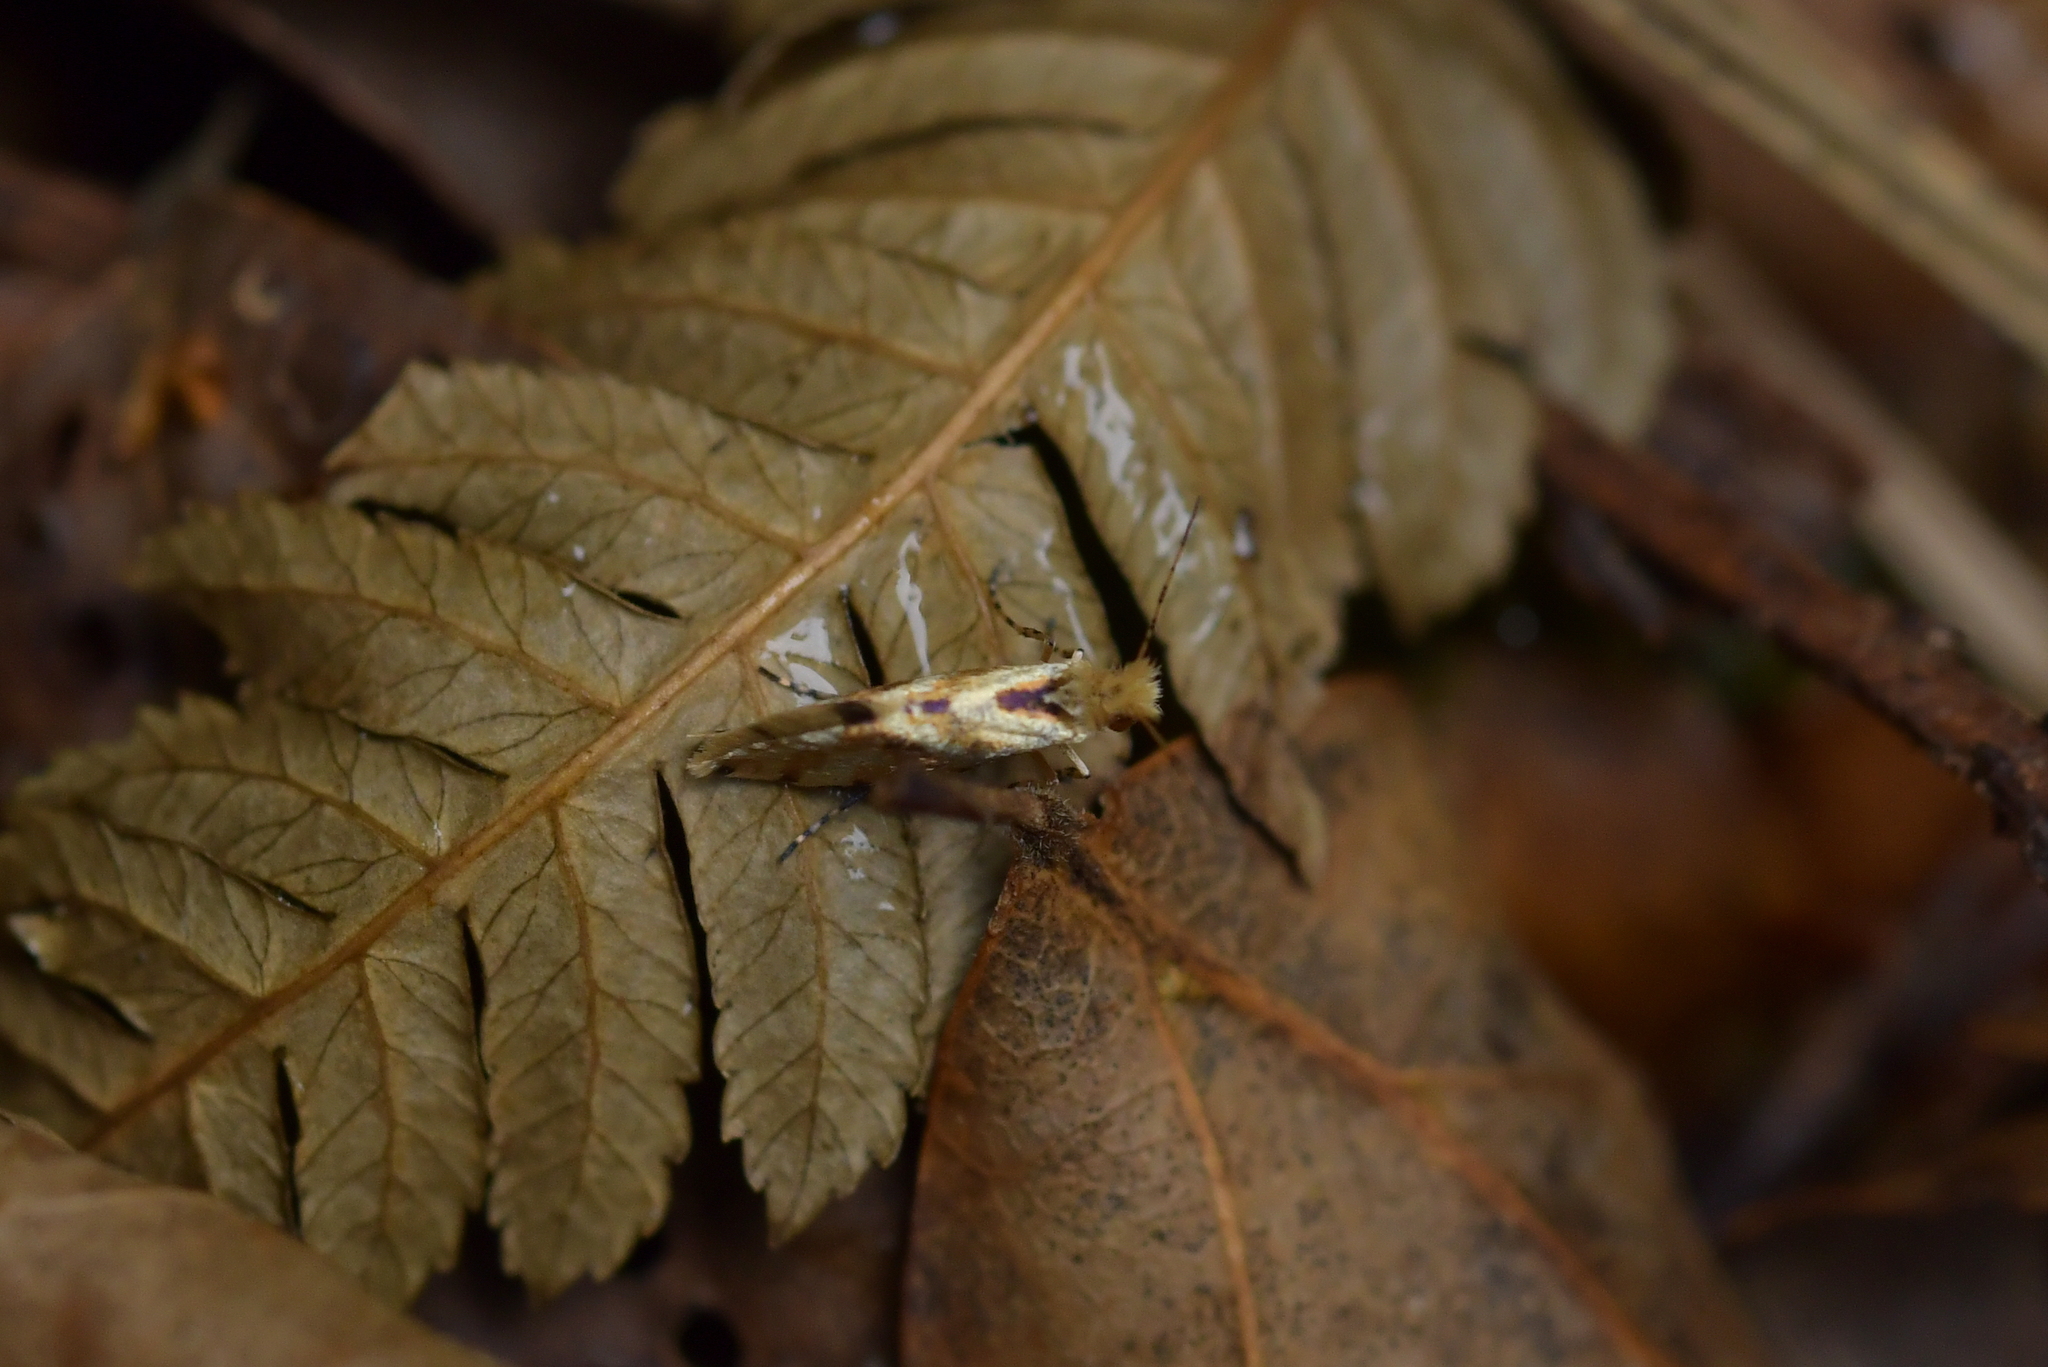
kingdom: Animalia
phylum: Arthropoda
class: Insecta
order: Lepidoptera
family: Micropterigidae
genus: Sabatinca
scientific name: Sabatinca chalcophanes
